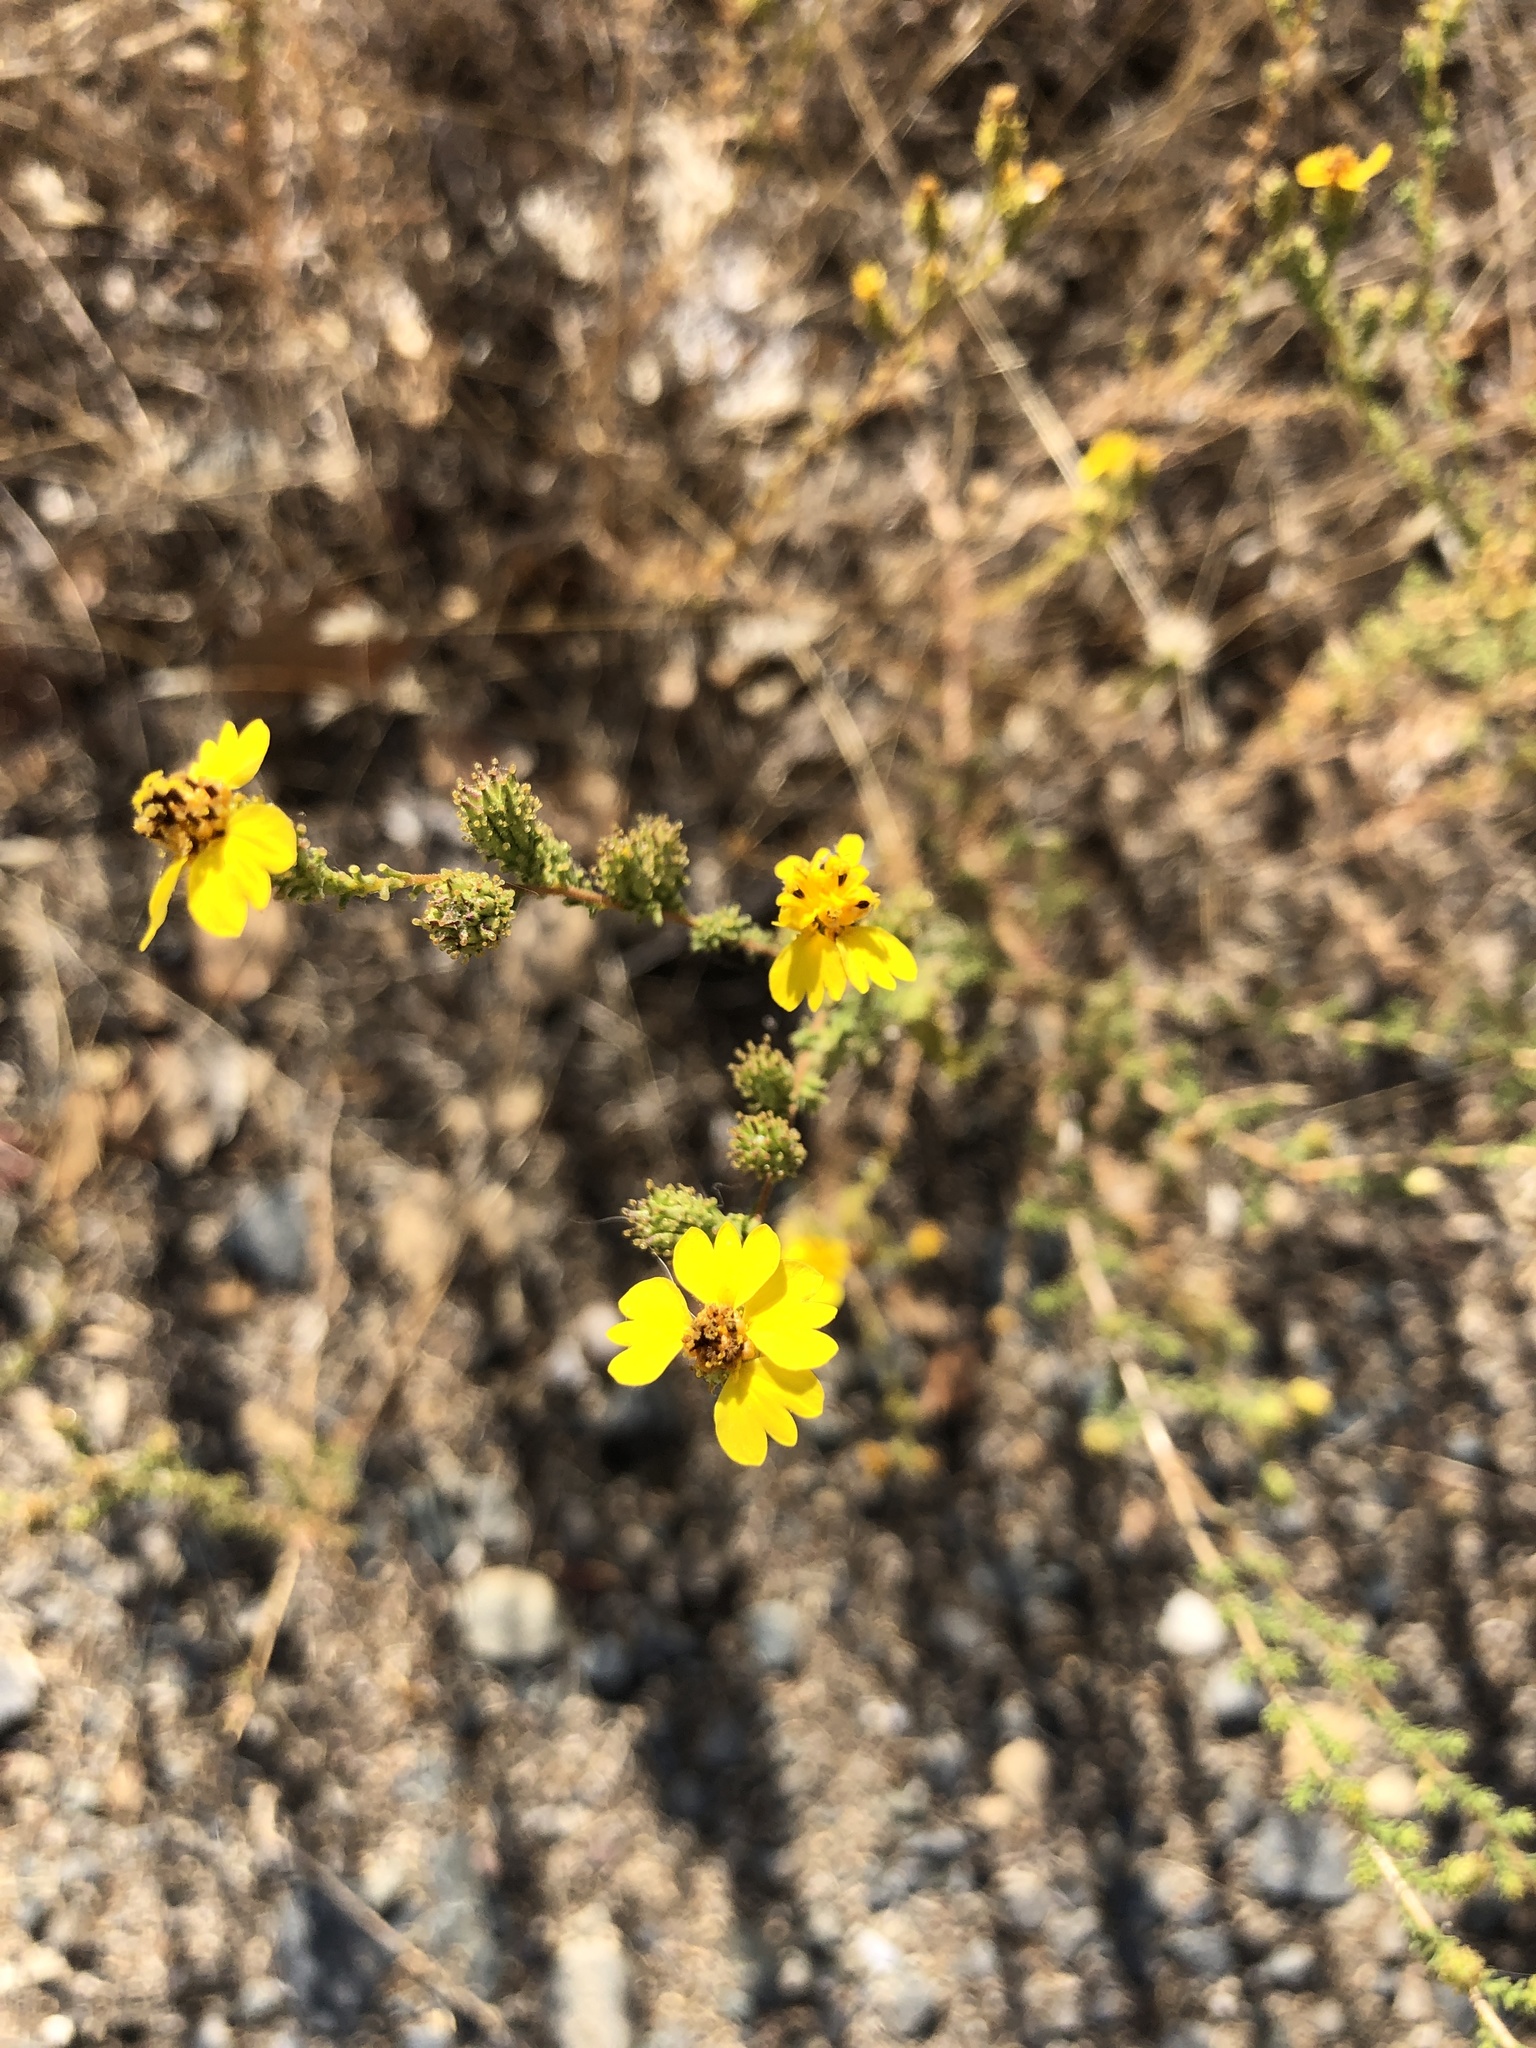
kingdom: Plantae
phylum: Tracheophyta
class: Magnoliopsida
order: Asterales
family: Asteraceae
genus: Holocarpha
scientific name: Holocarpha virgata
